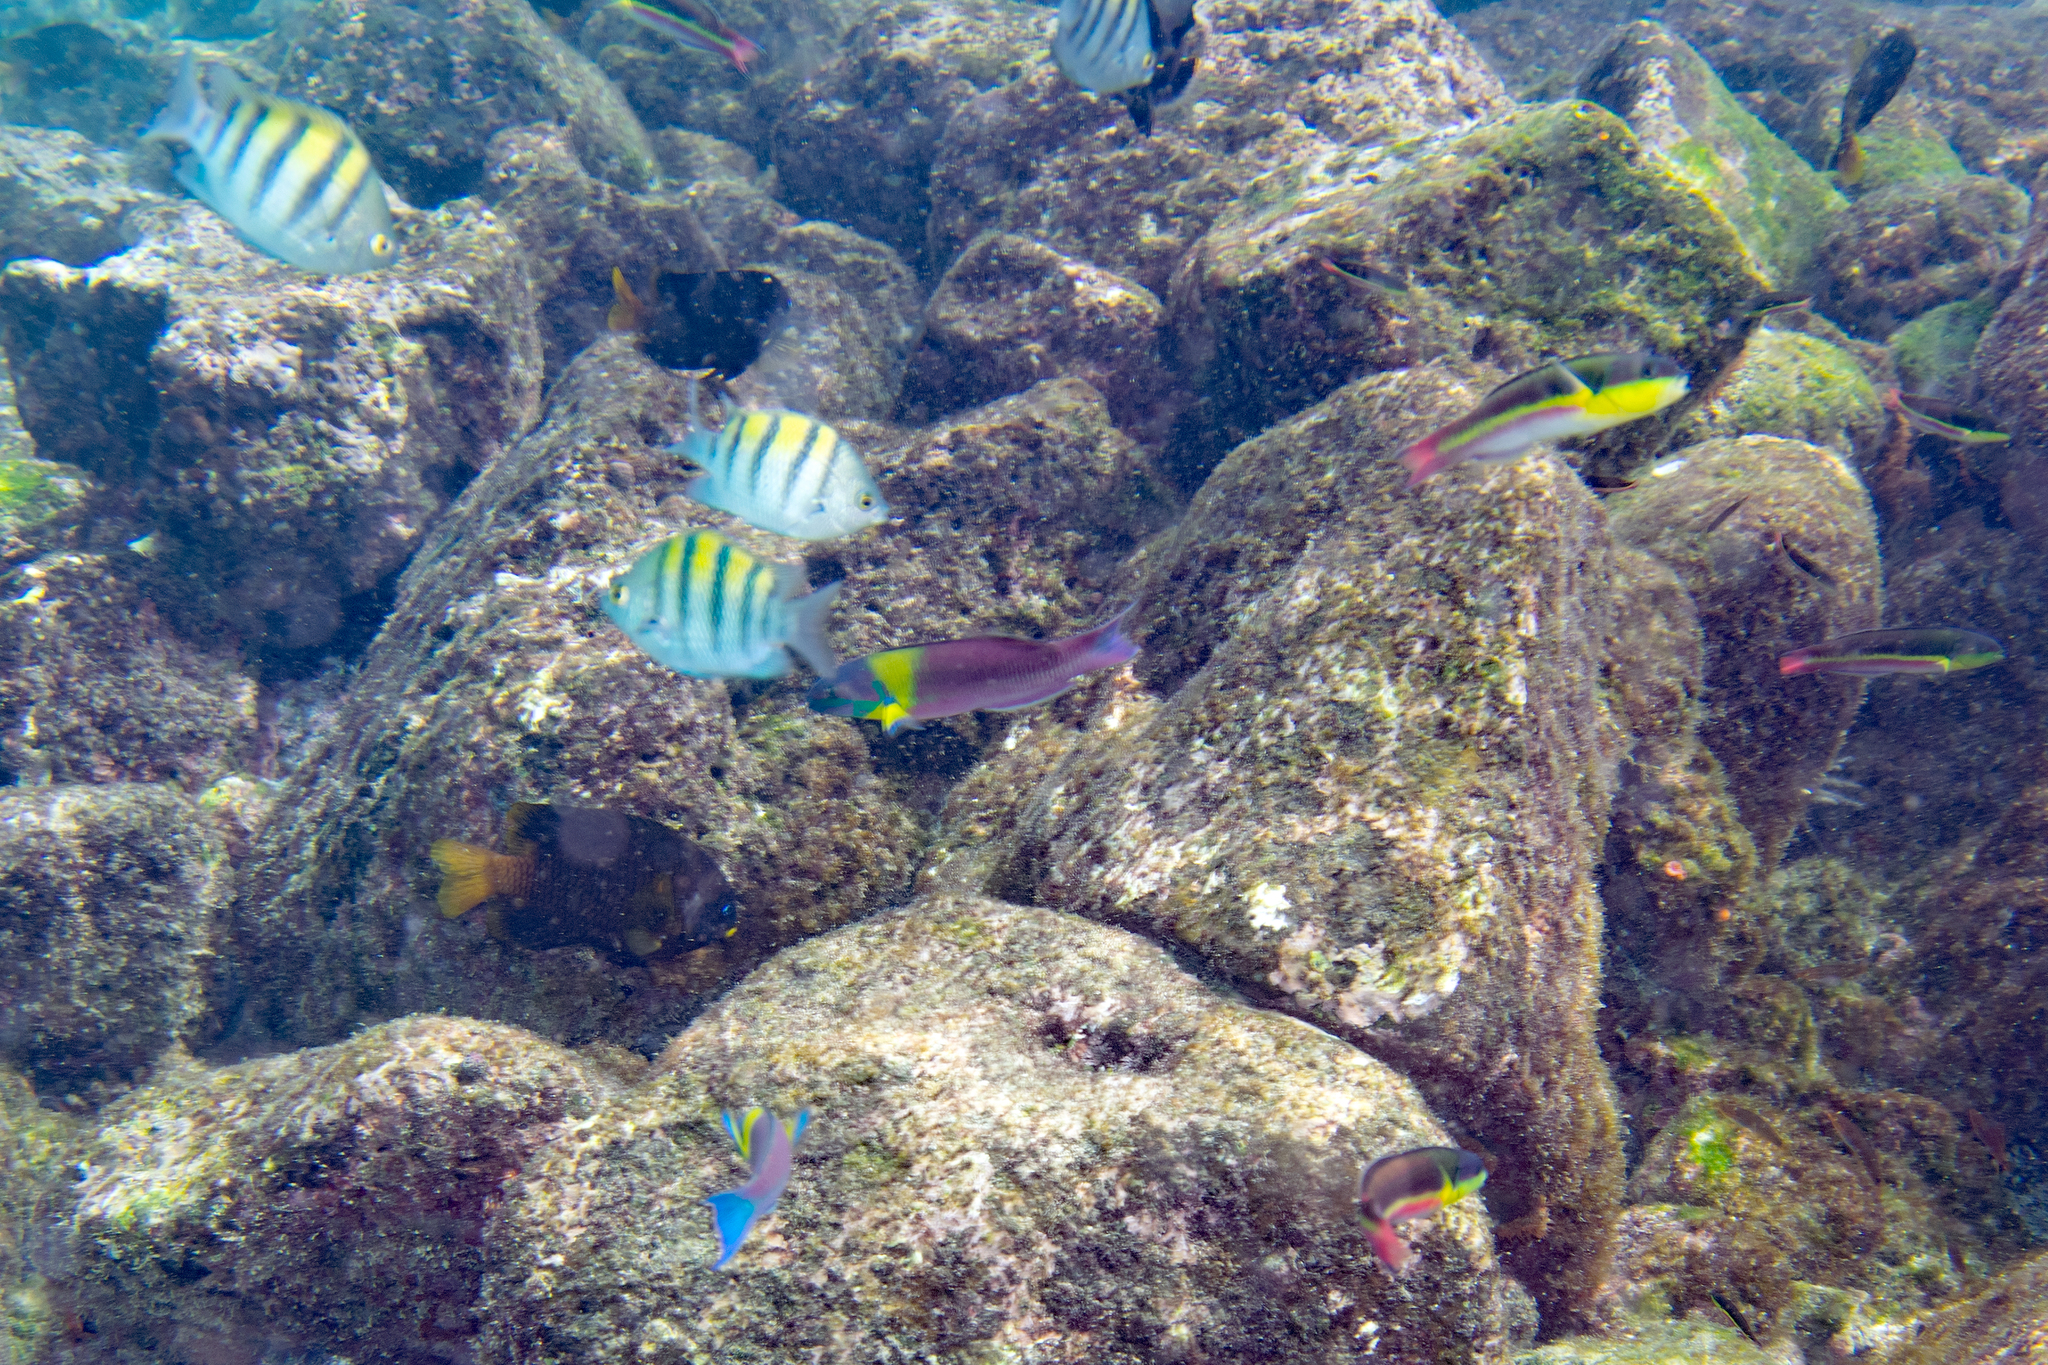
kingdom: Animalia
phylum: Chordata
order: Perciformes
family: Labridae
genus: Thalassoma
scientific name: Thalassoma lucasanum
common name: Cortez rainbow wrasse
